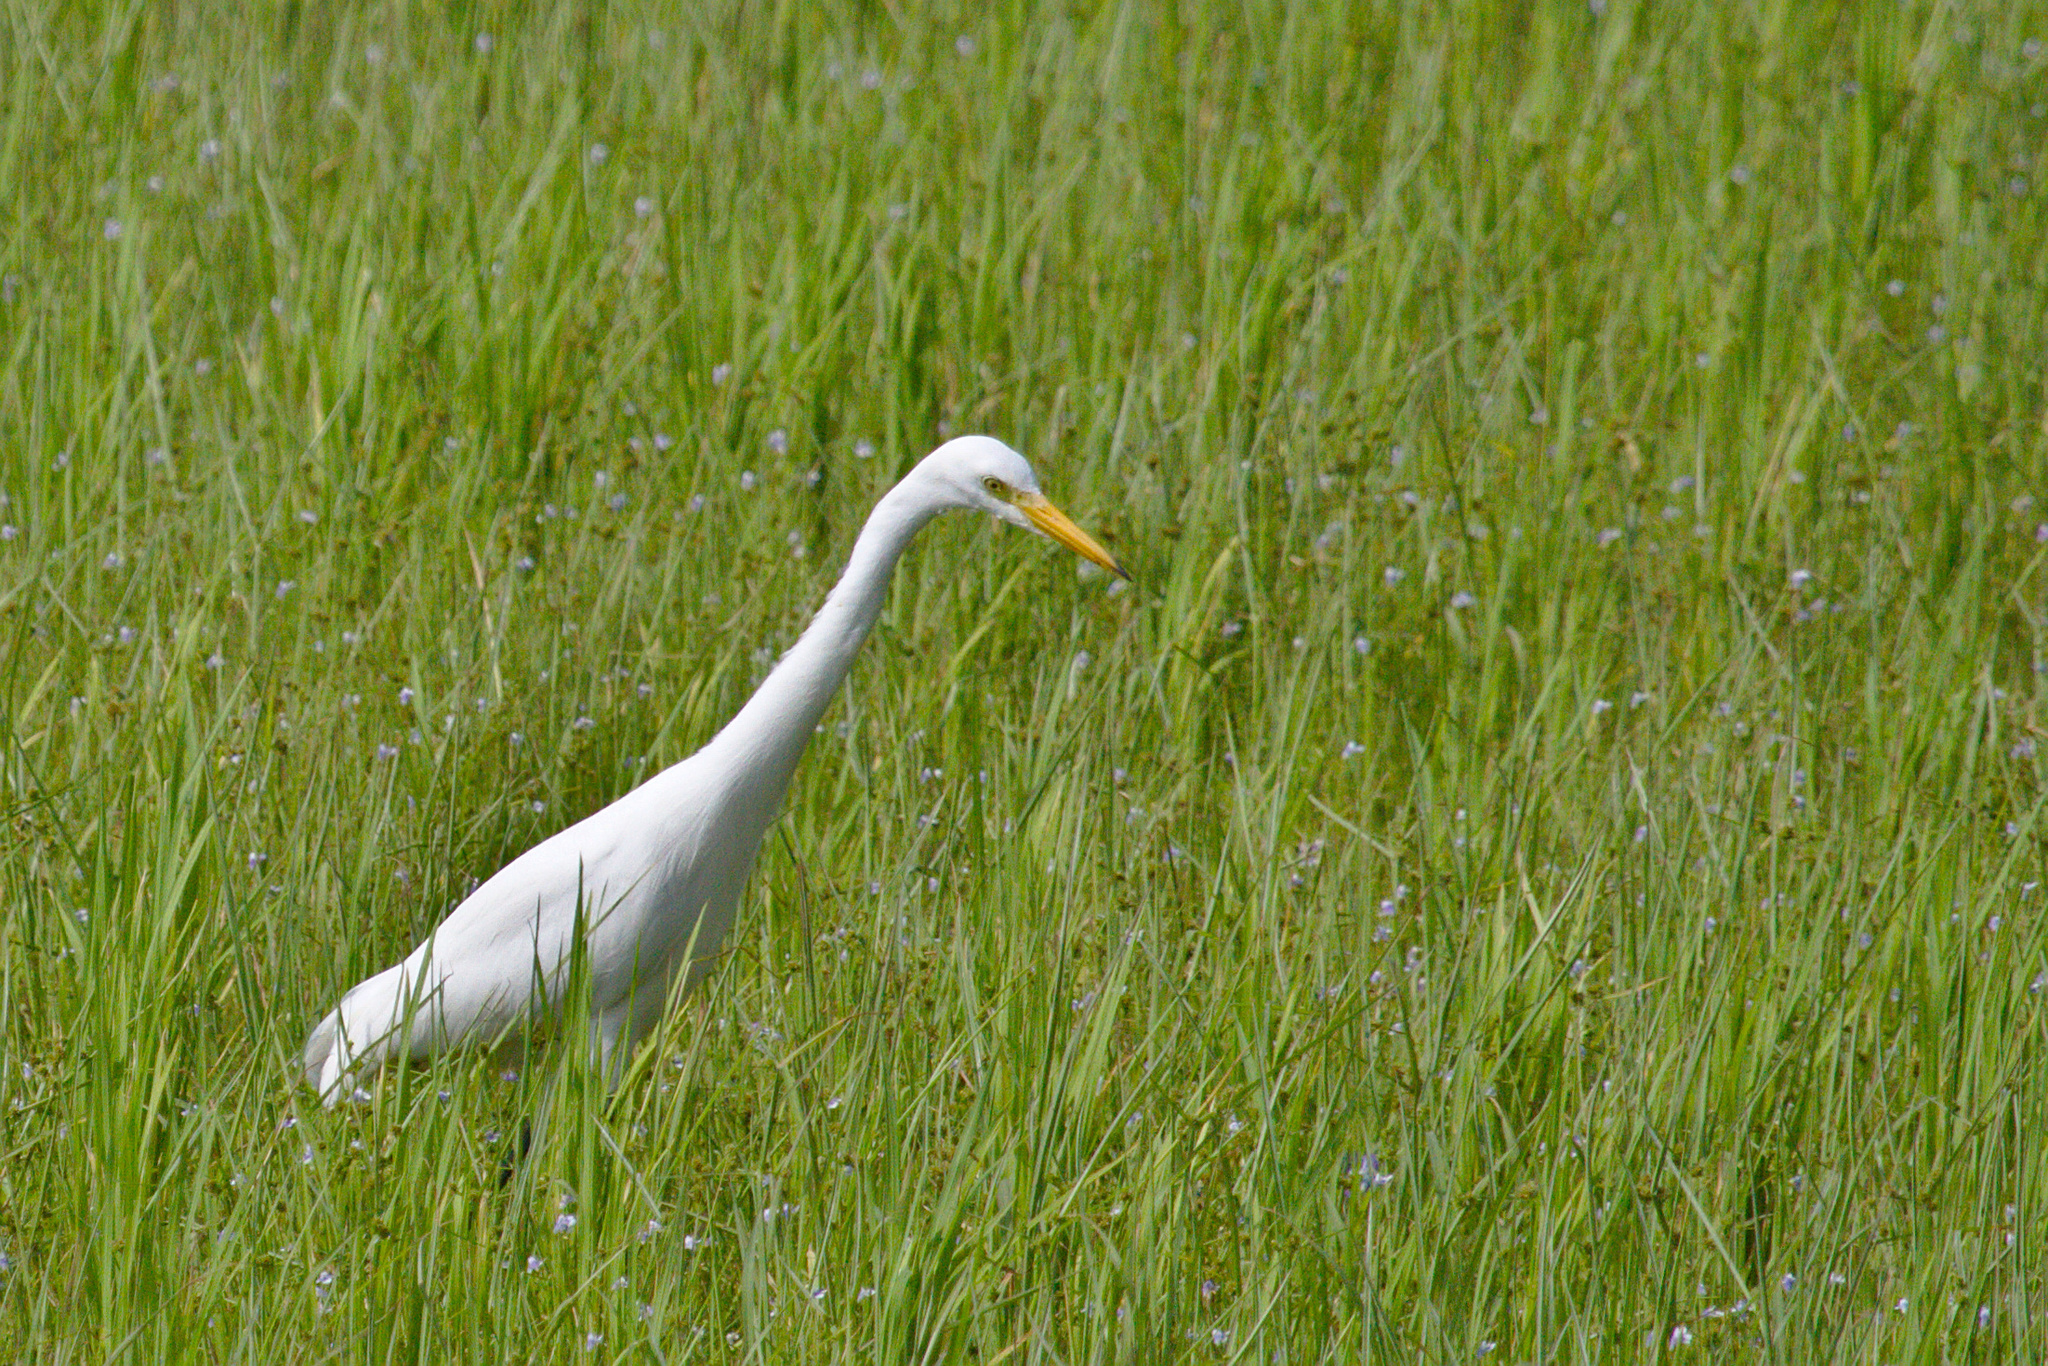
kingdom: Animalia
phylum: Chordata
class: Aves
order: Pelecaniformes
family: Ardeidae
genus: Egretta
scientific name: Egretta intermedia
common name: Intermediate egret
